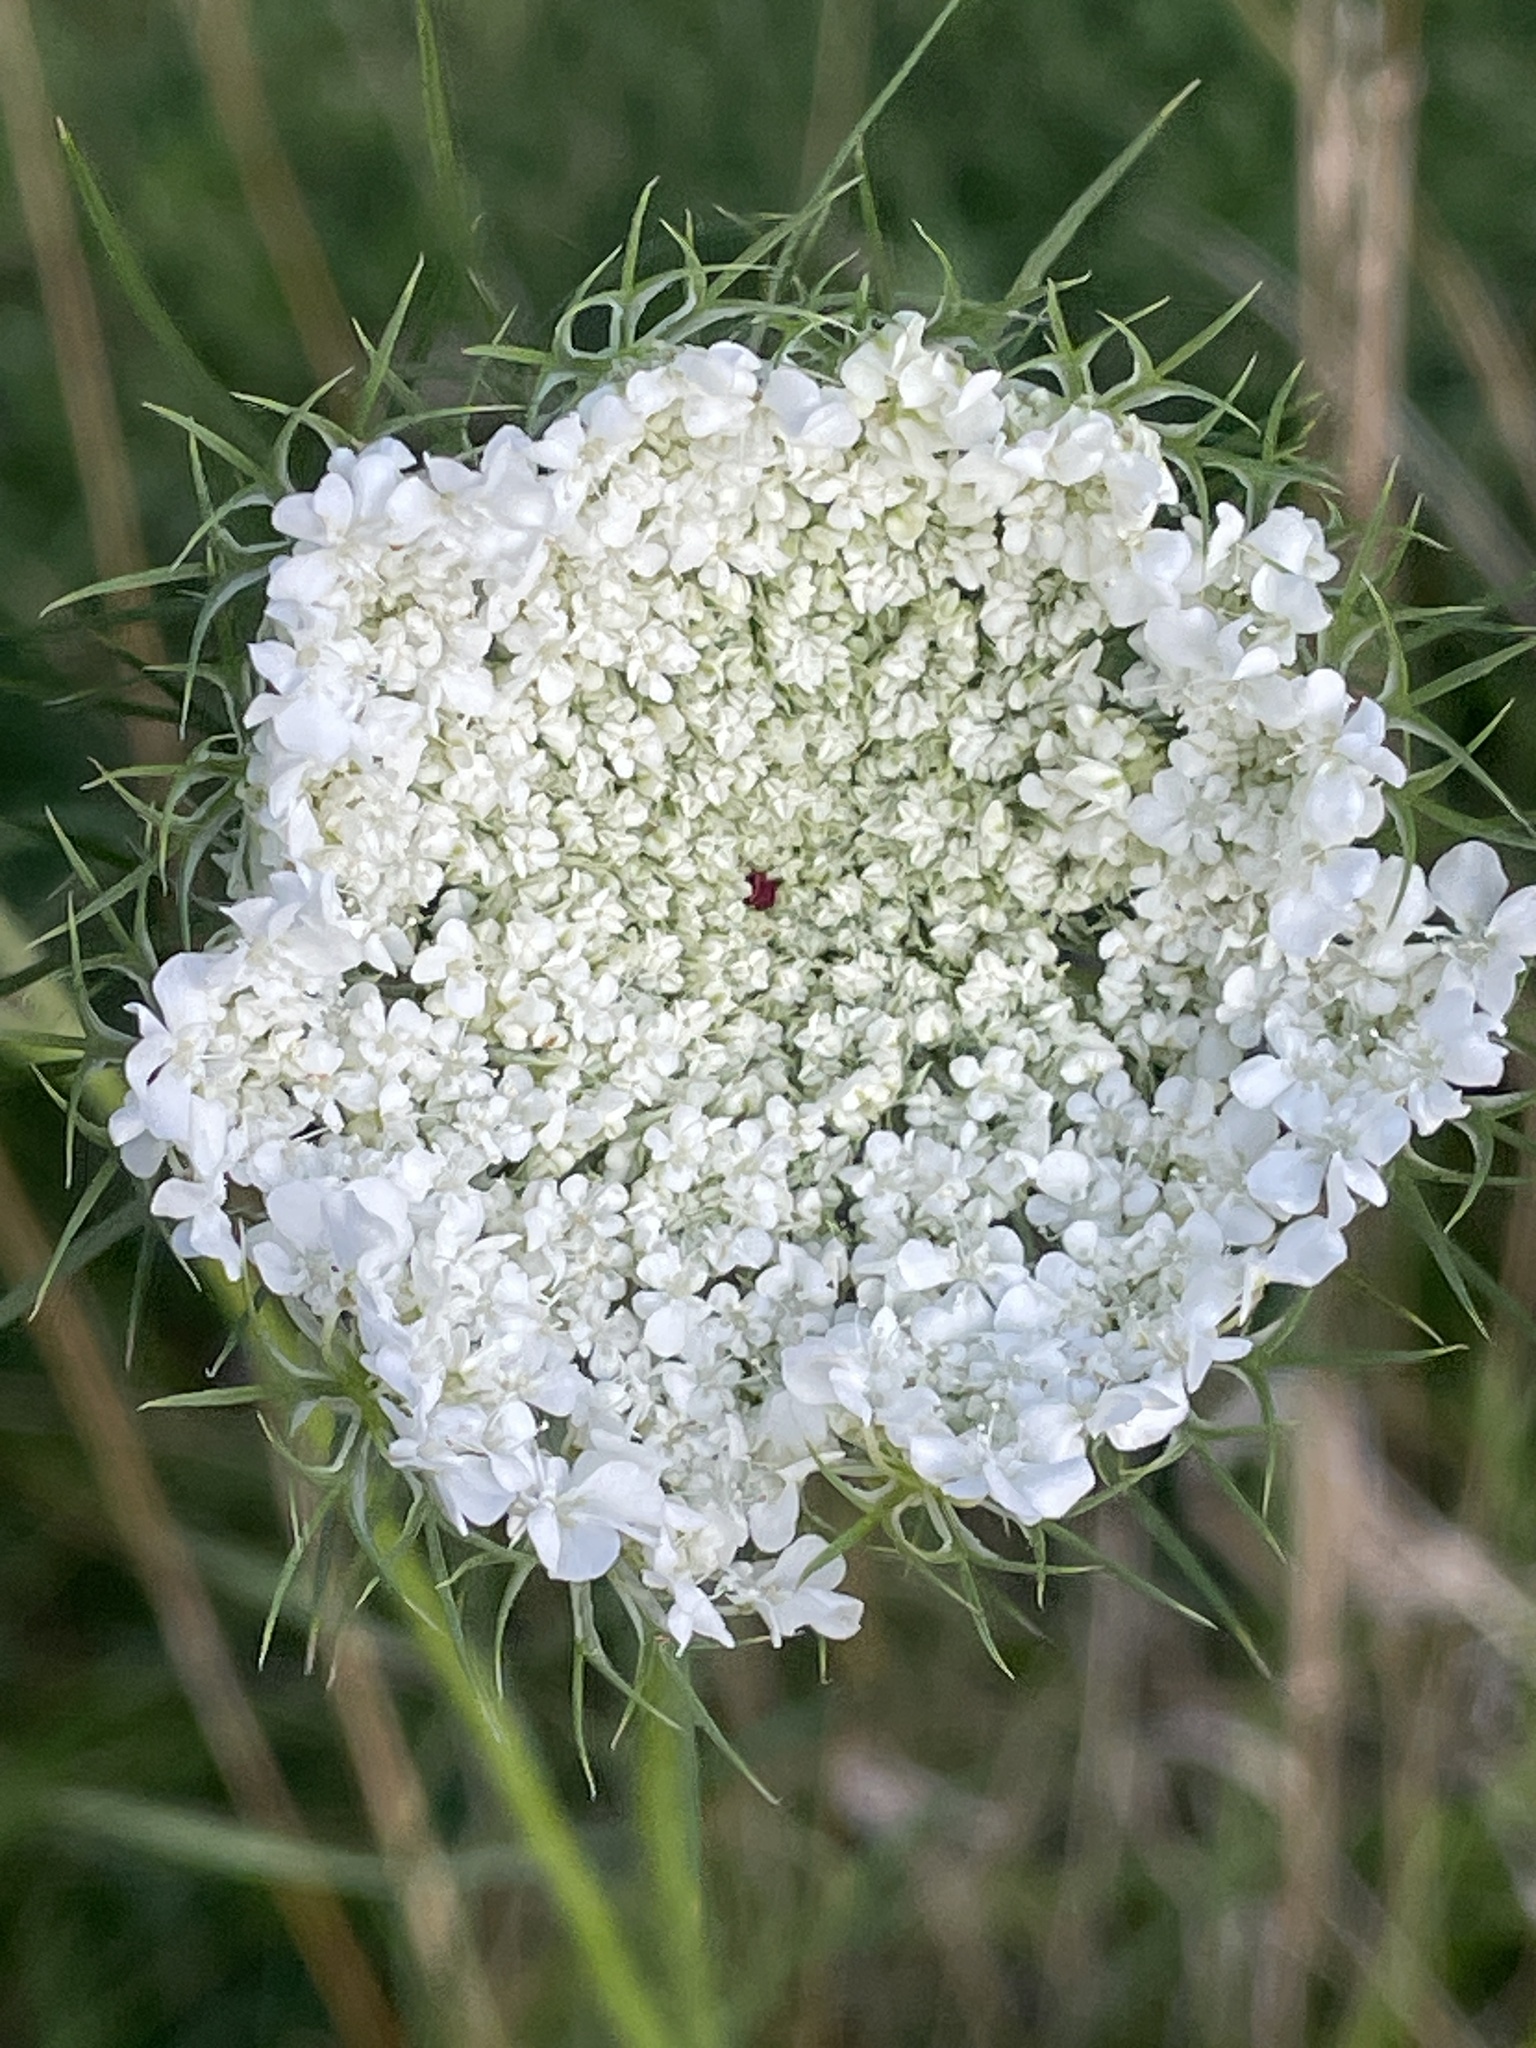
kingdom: Plantae
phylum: Tracheophyta
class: Magnoliopsida
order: Apiales
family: Apiaceae
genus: Daucus
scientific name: Daucus carota
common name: Wild carrot
